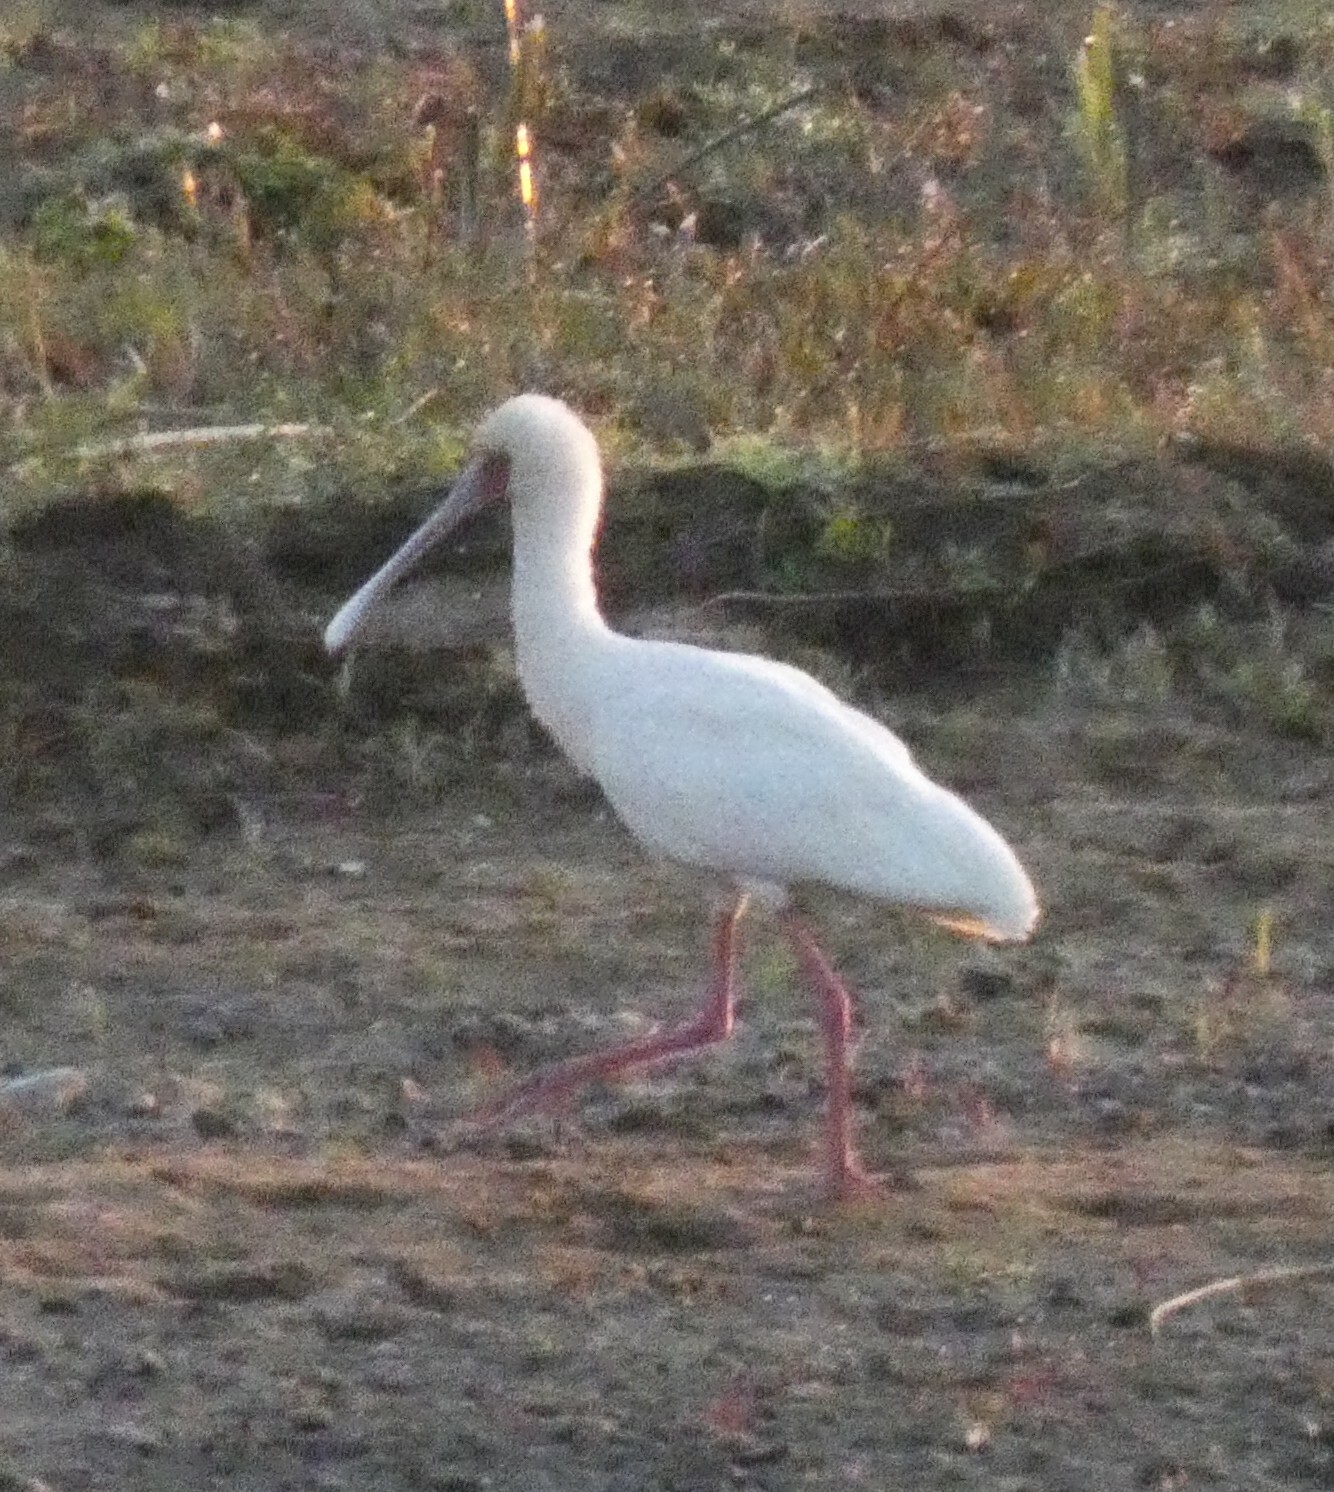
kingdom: Animalia
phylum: Chordata
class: Aves
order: Pelecaniformes
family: Threskiornithidae
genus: Platalea
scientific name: Platalea alba
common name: African spoonbill
